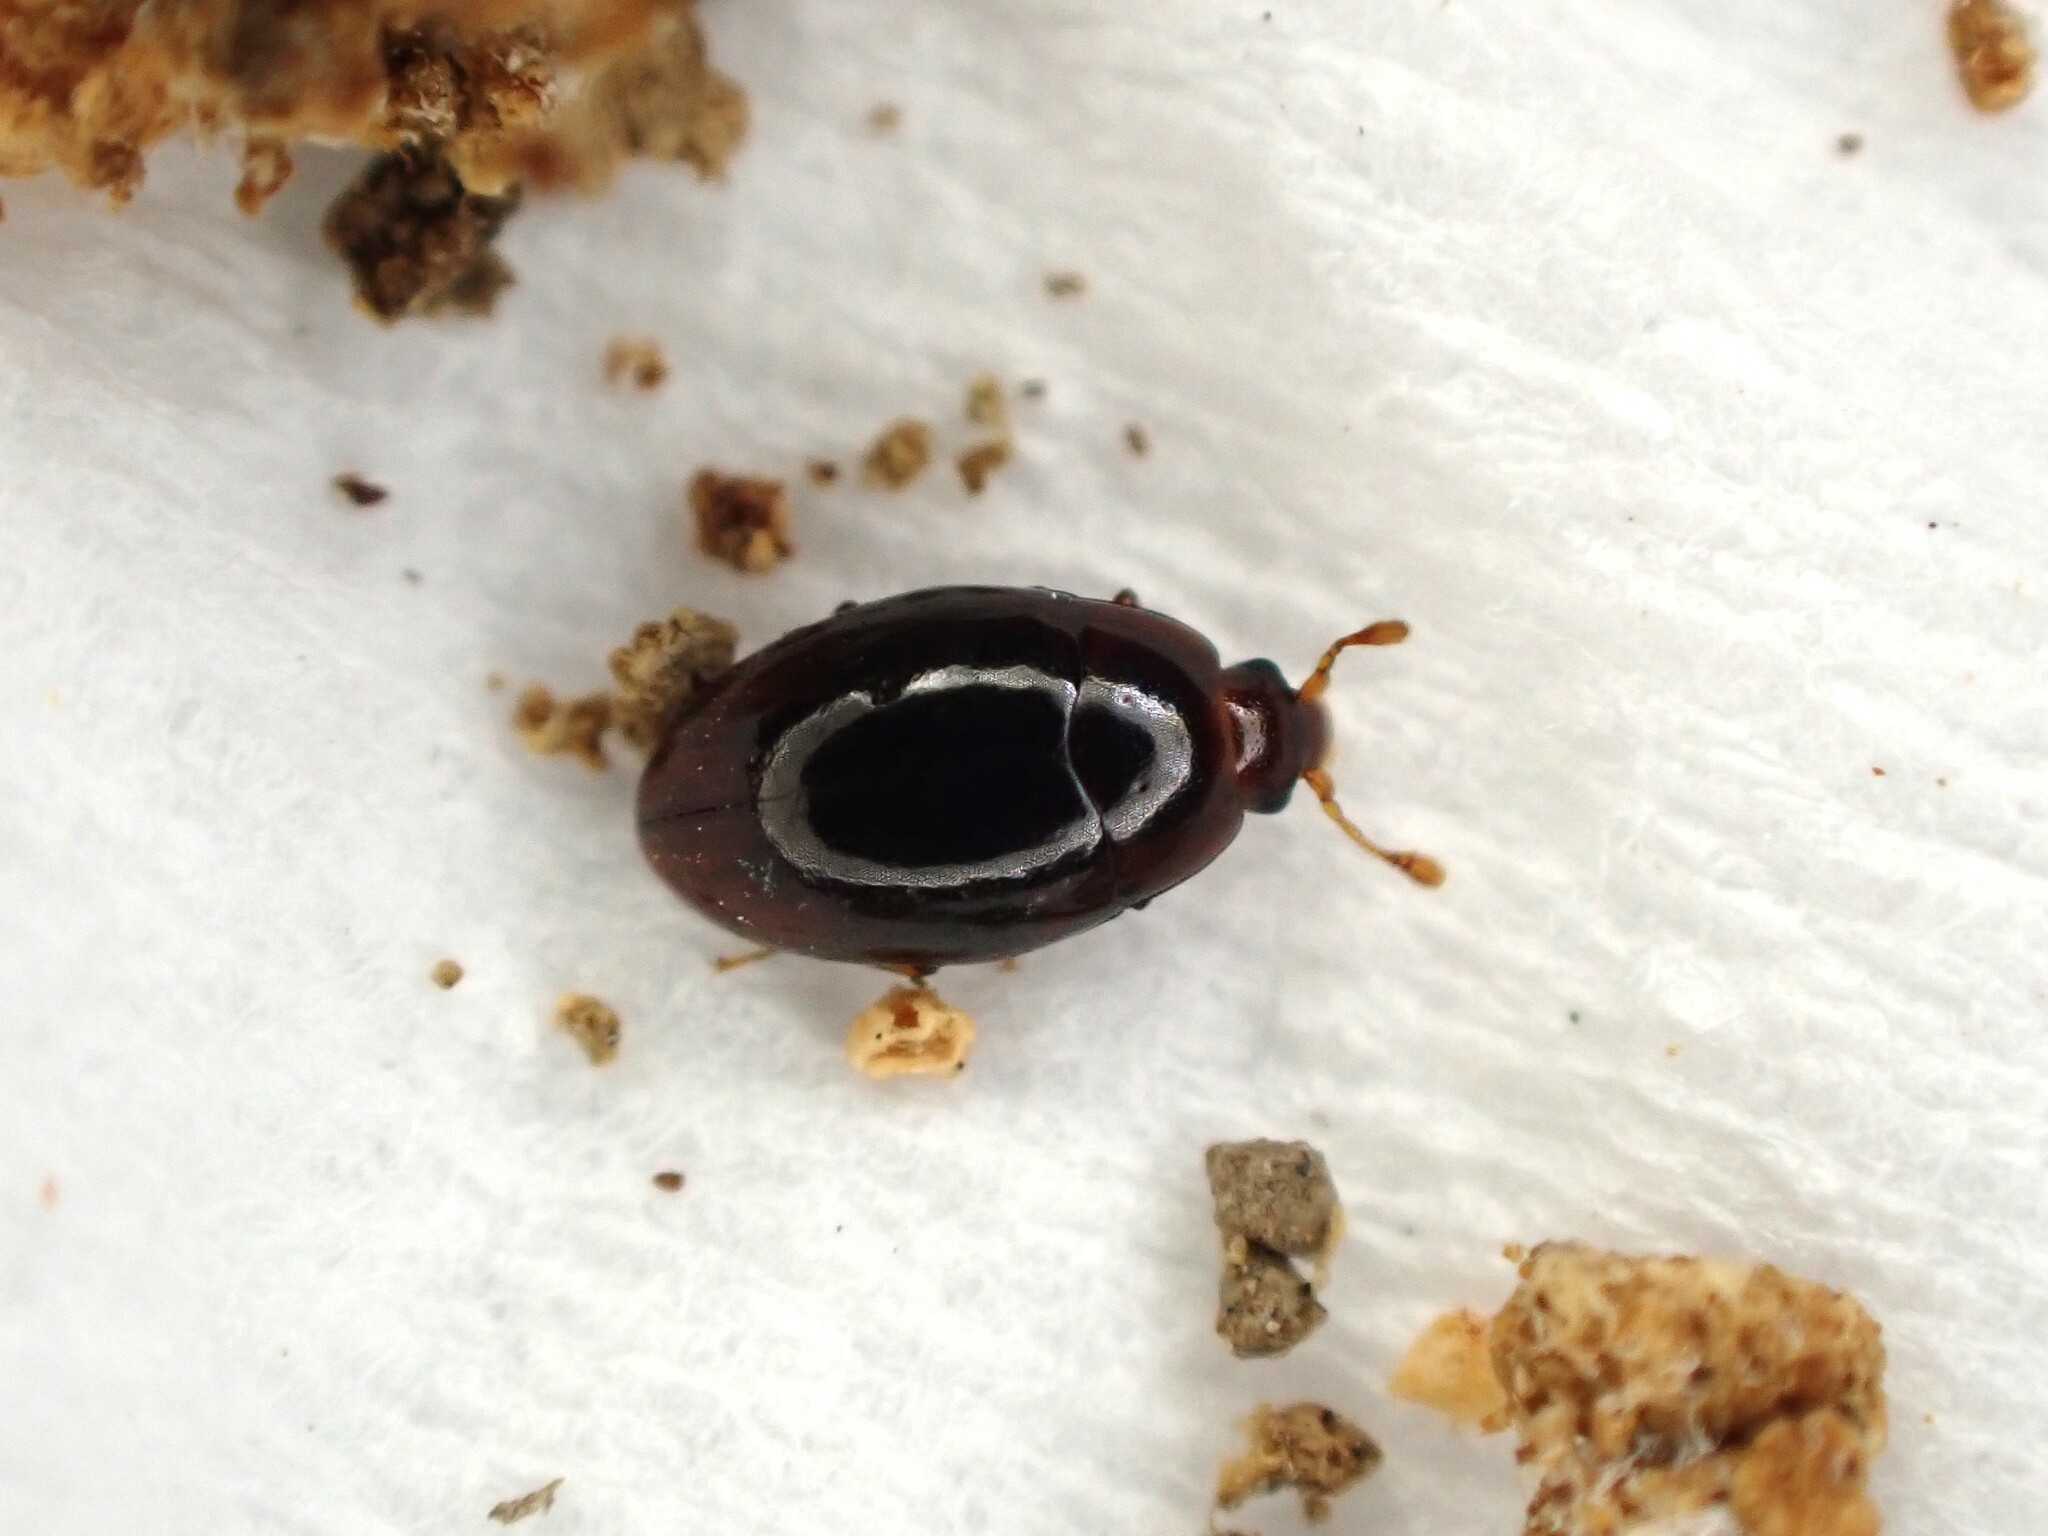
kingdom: Animalia
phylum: Arthropoda
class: Insecta
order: Coleoptera
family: Cerylonidae
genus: Hypodacnella
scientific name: Hypodacnella
